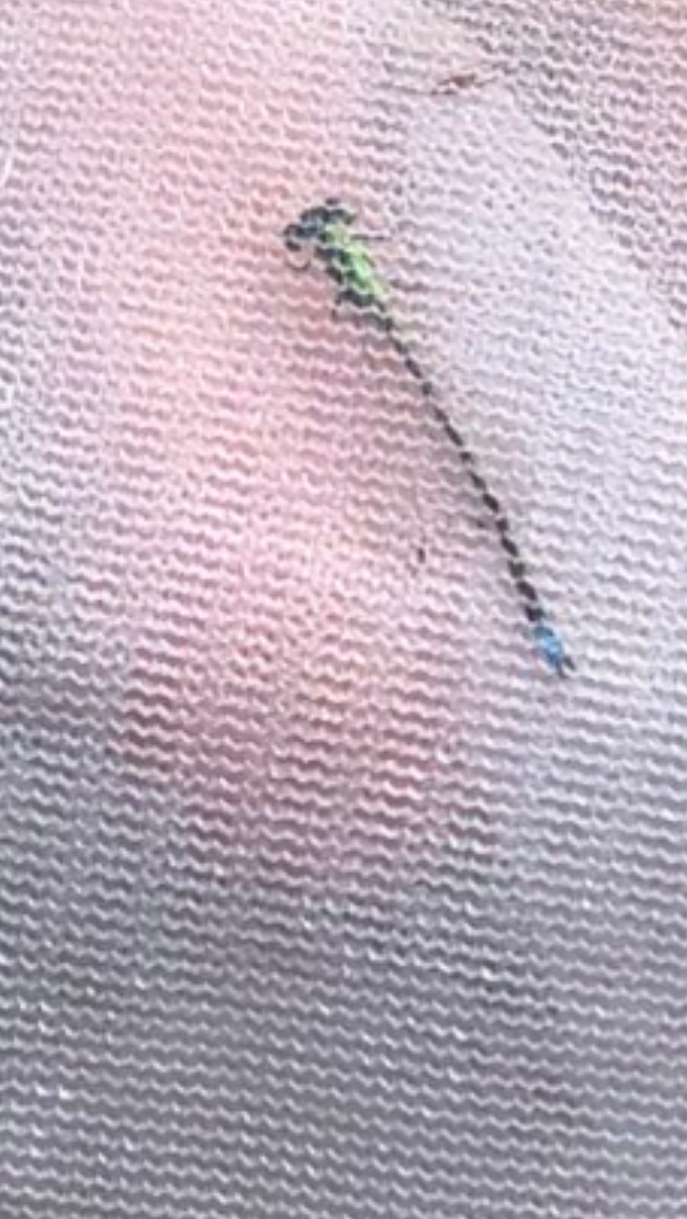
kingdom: Animalia
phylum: Arthropoda
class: Insecta
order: Odonata
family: Coenagrionidae
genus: Ischnura
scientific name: Ischnura verticalis
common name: Eastern forktail
